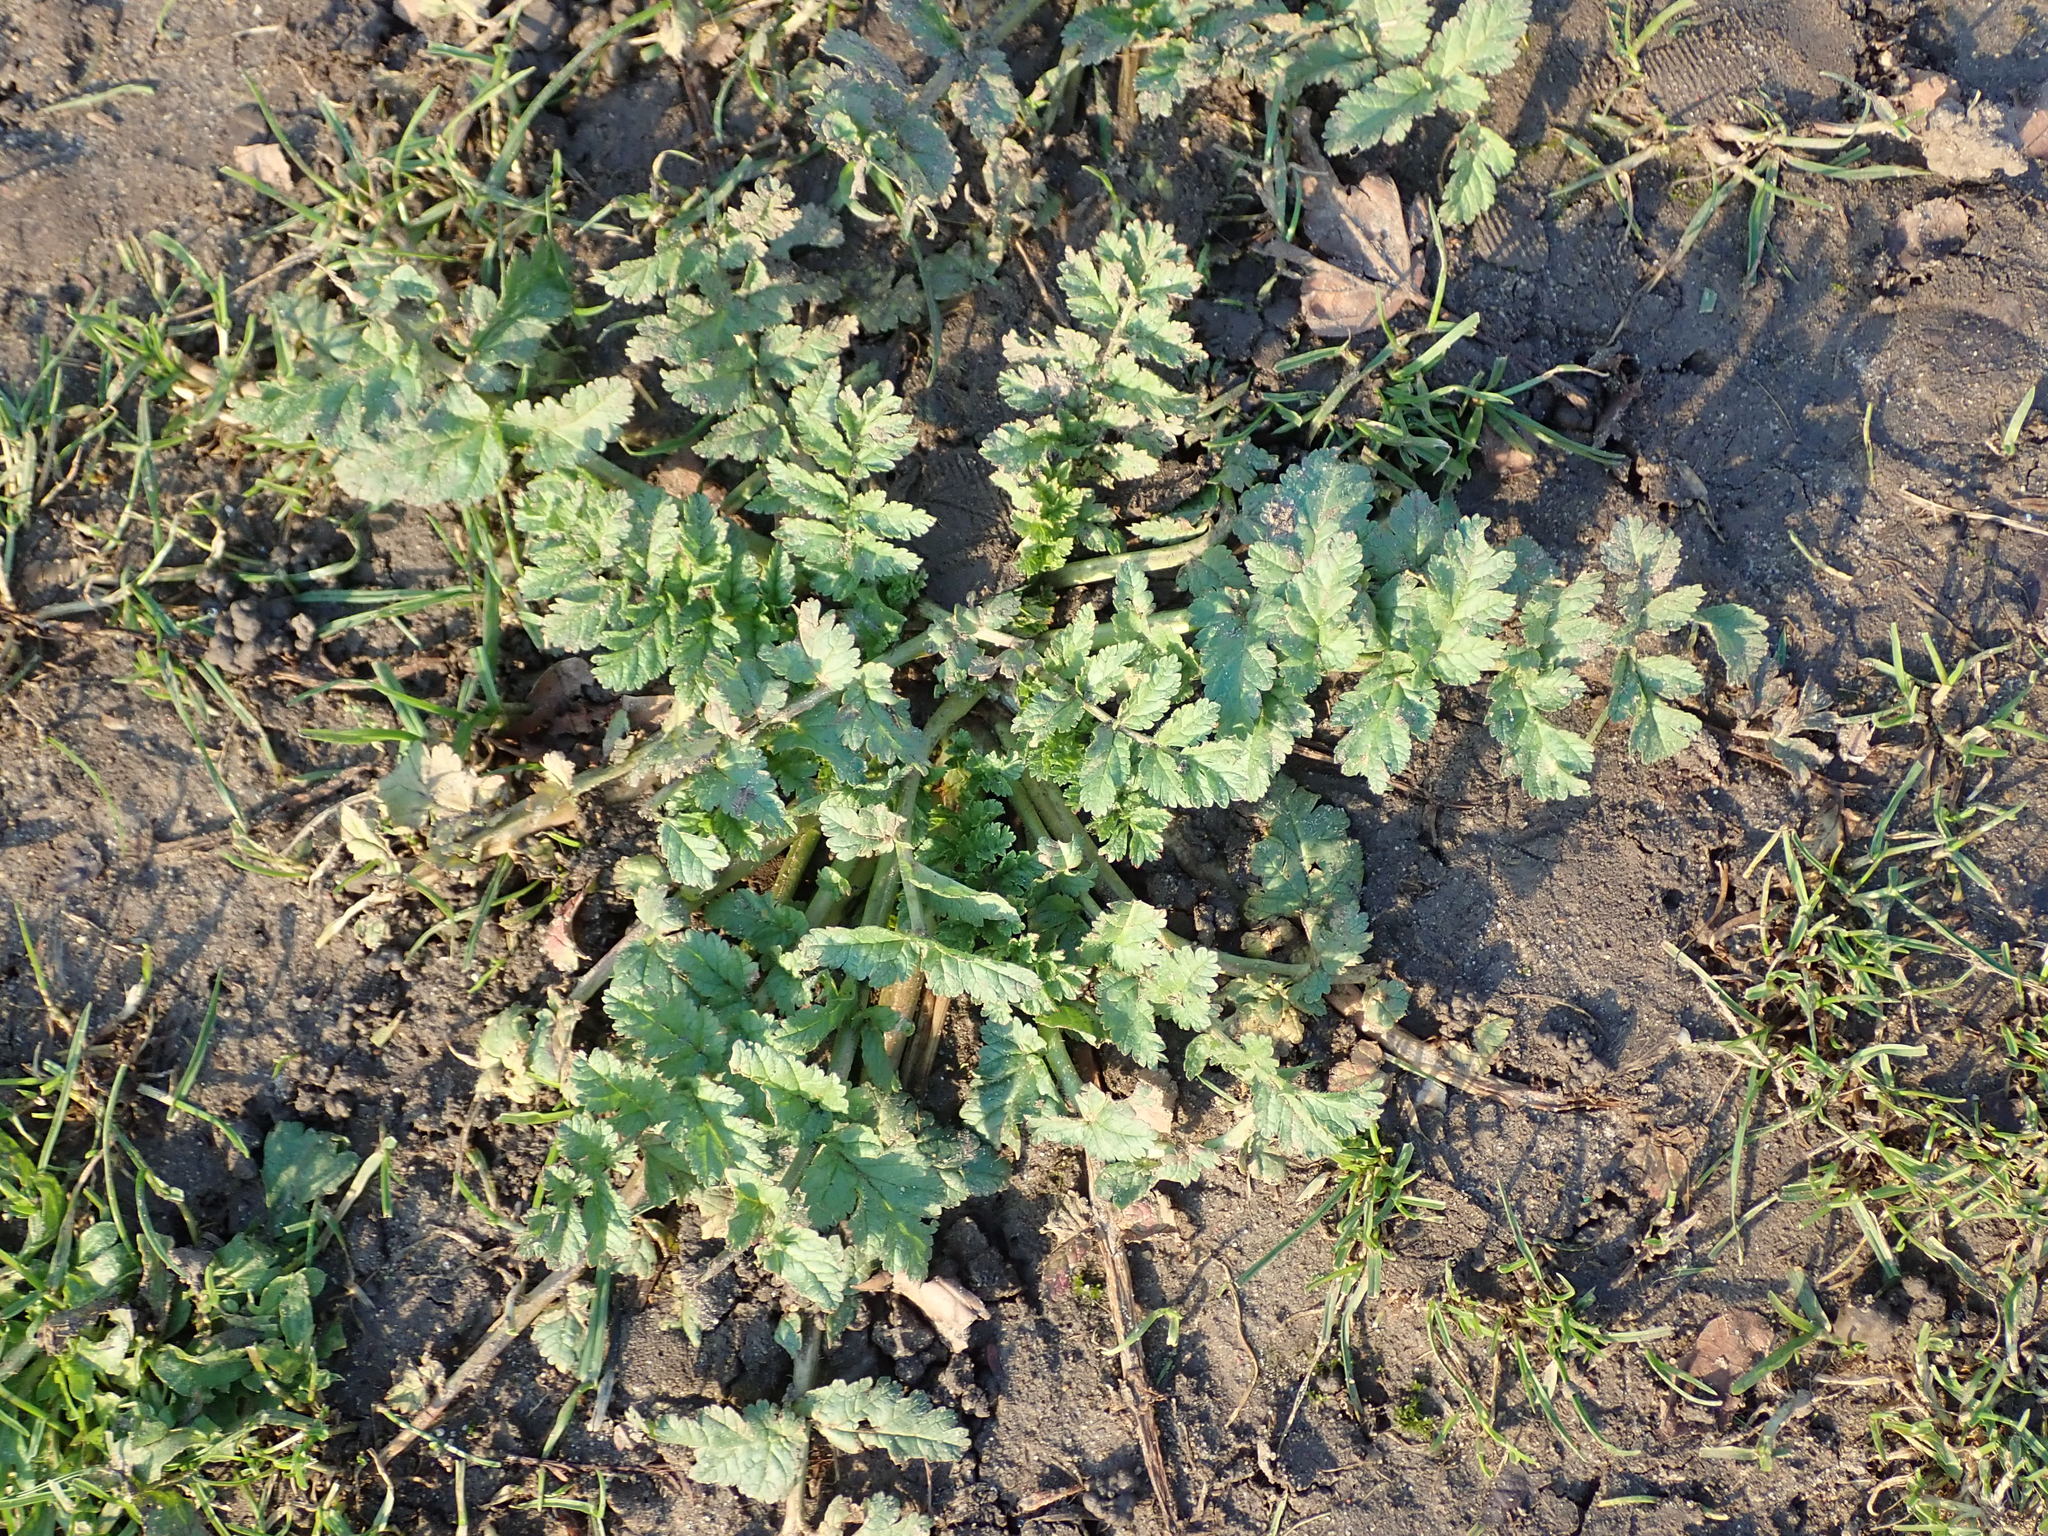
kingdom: Plantae
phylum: Tracheophyta
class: Magnoliopsida
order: Geraniales
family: Geraniaceae
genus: Erodium
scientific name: Erodium moschatum
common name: Musk stork's-bill
